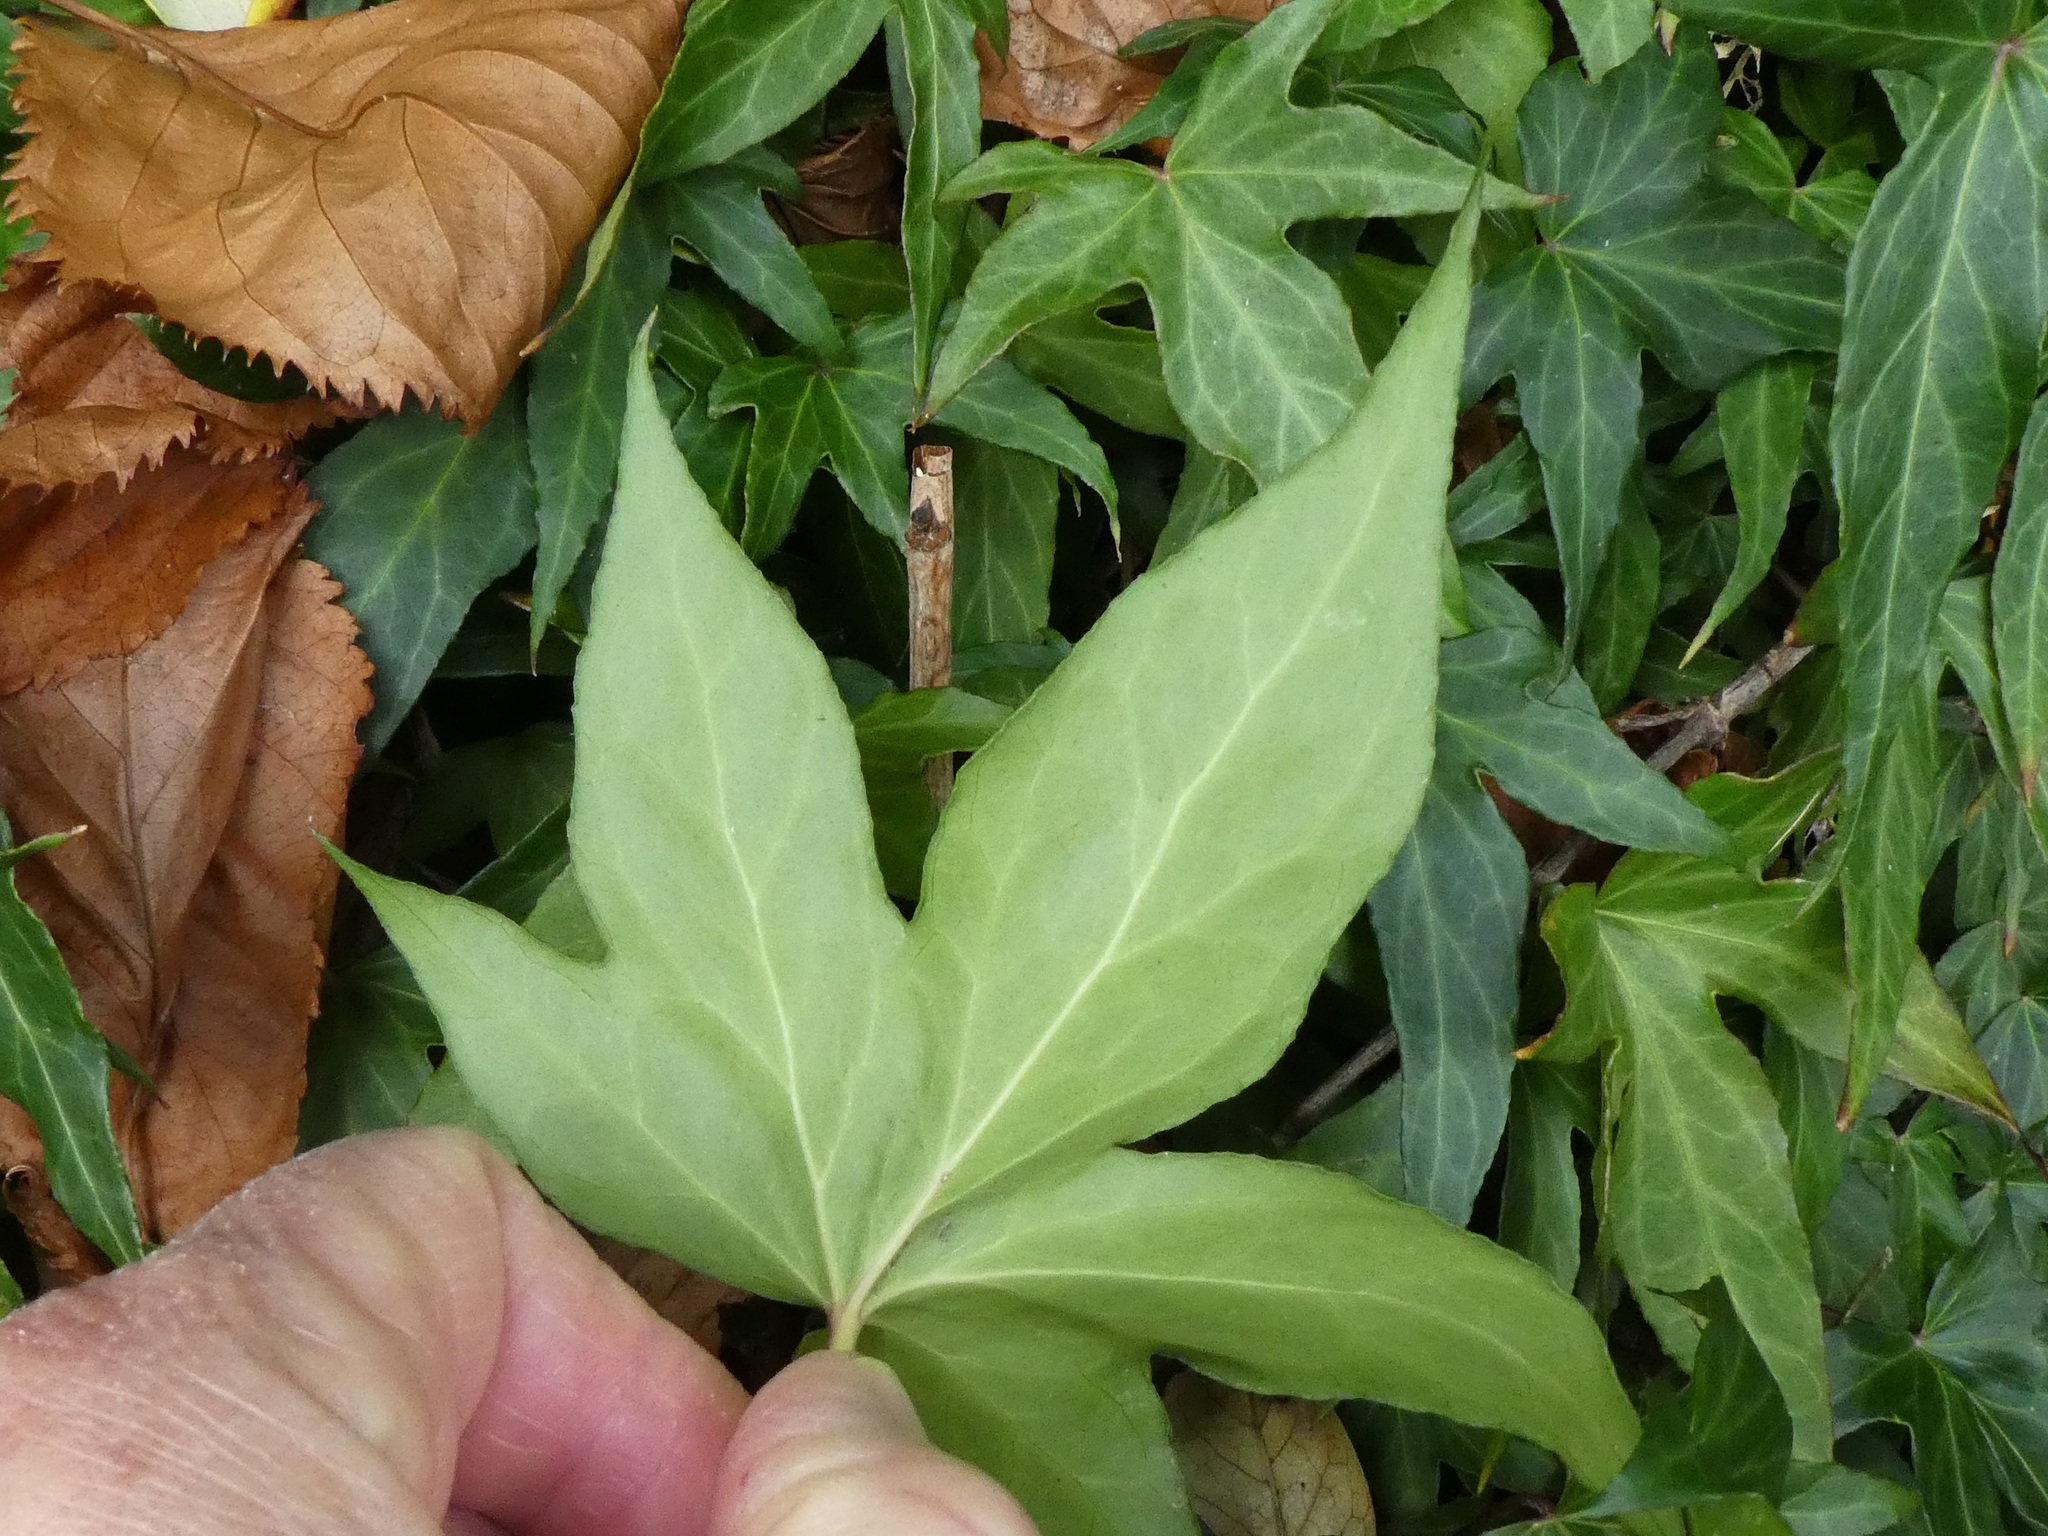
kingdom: Plantae
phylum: Tracheophyta
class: Magnoliopsida
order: Apiales
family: Araliaceae
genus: Hedera
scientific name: Hedera helix
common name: Ivy
